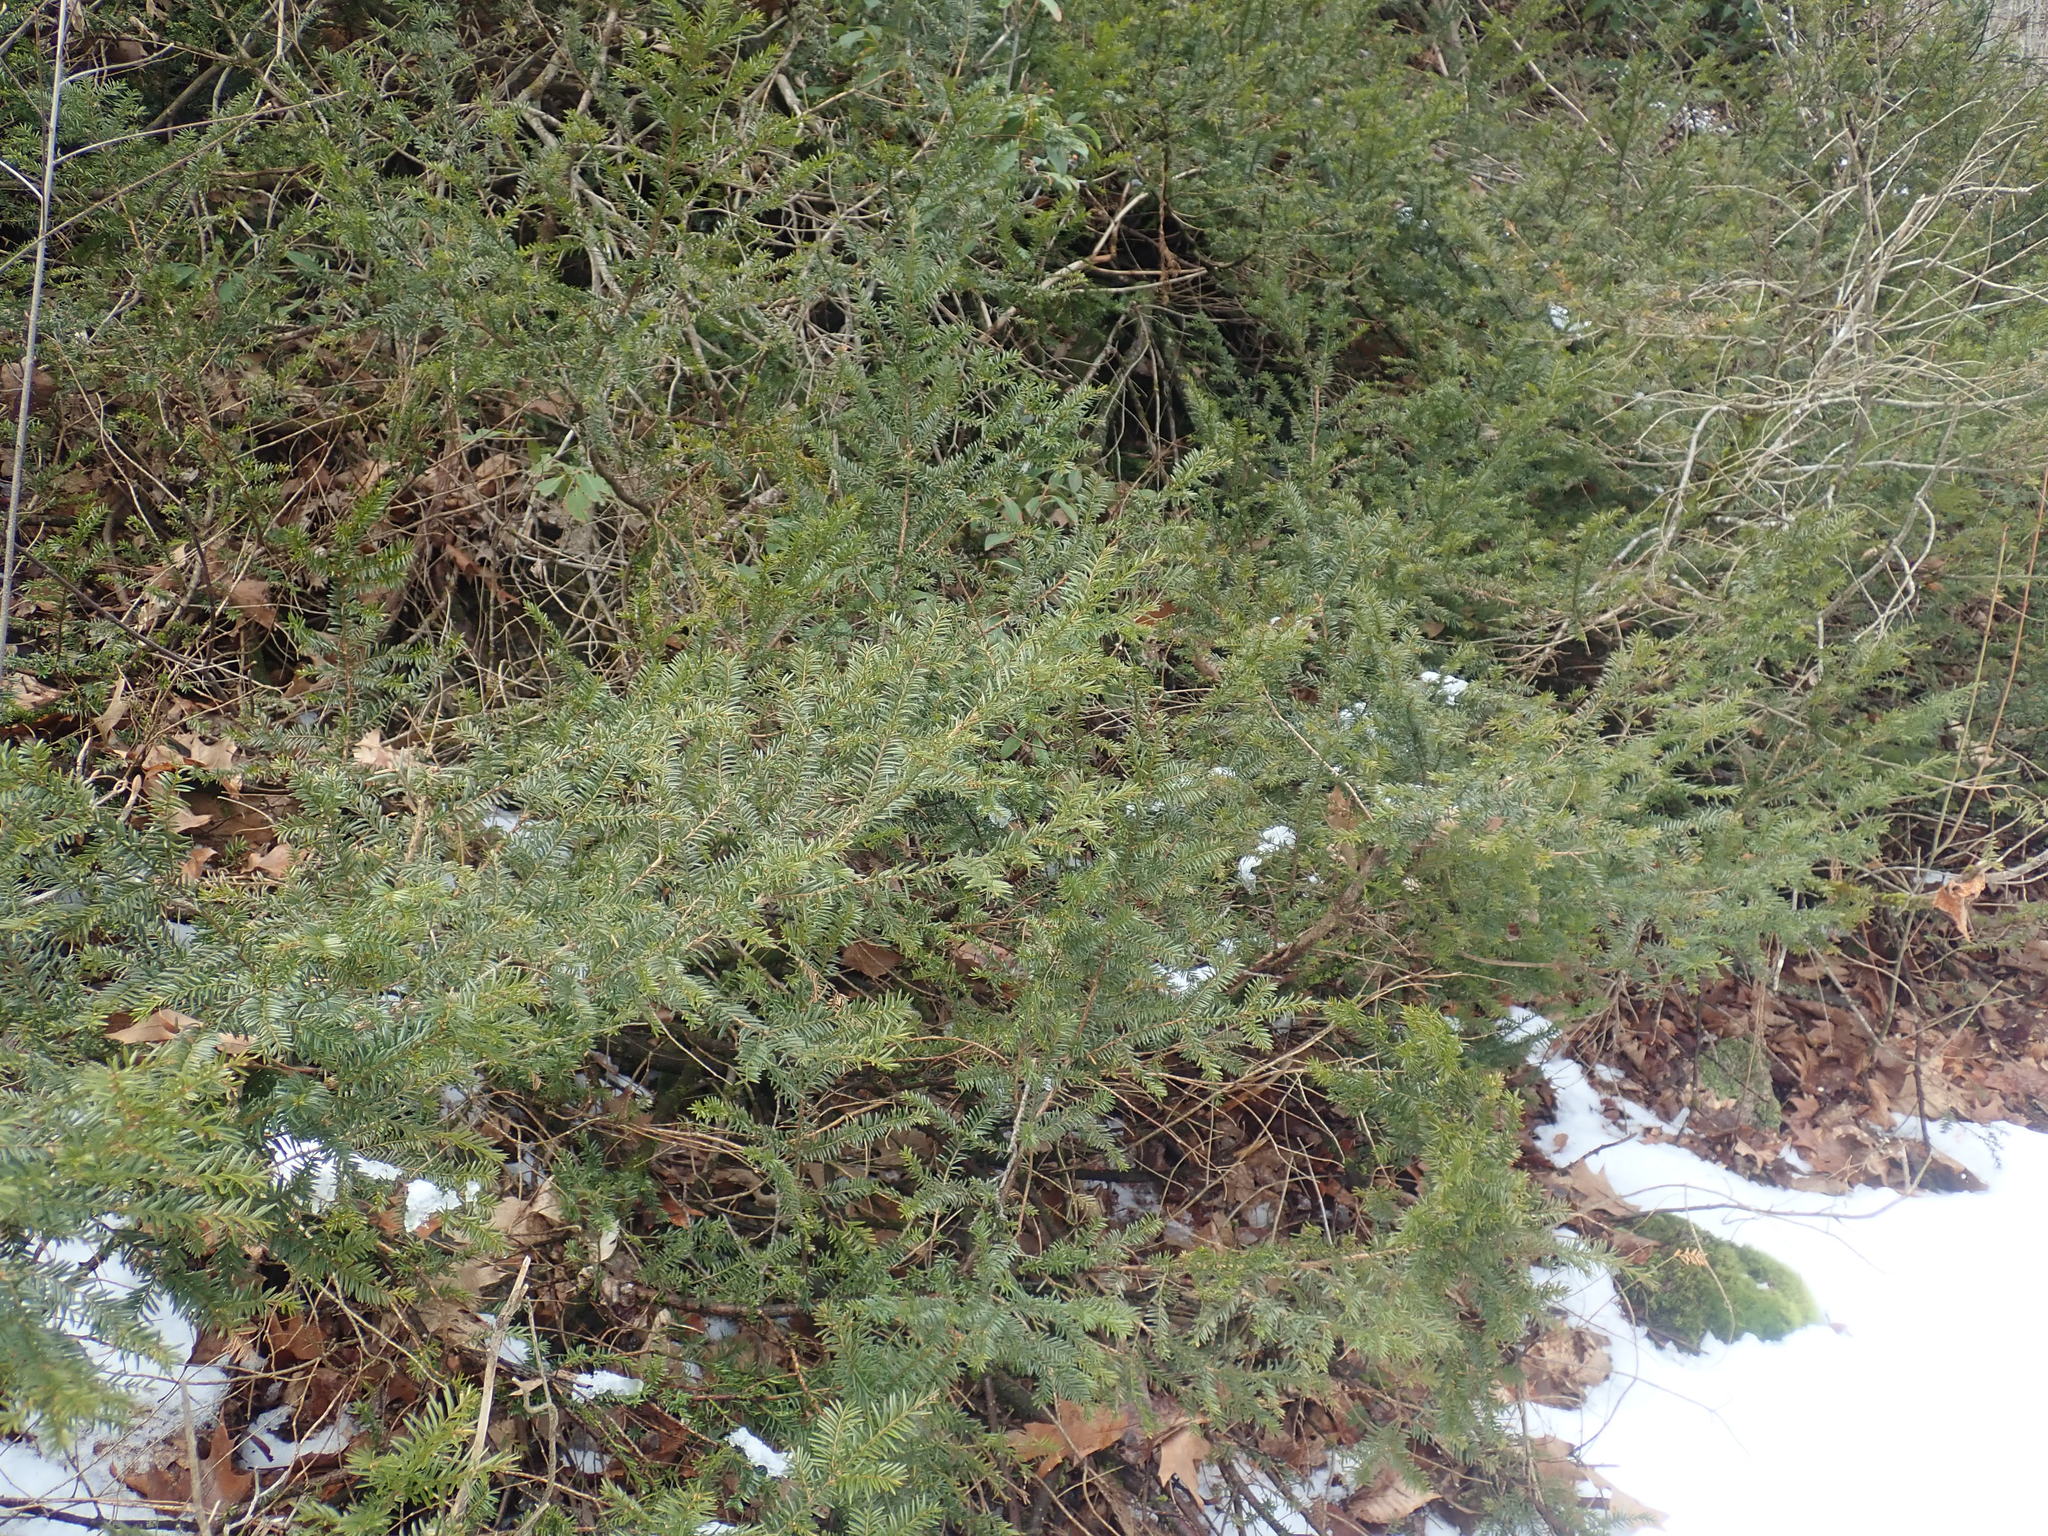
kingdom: Plantae
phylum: Tracheophyta
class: Pinopsida
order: Pinales
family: Taxaceae
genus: Taxus
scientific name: Taxus canadensis
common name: American yew
